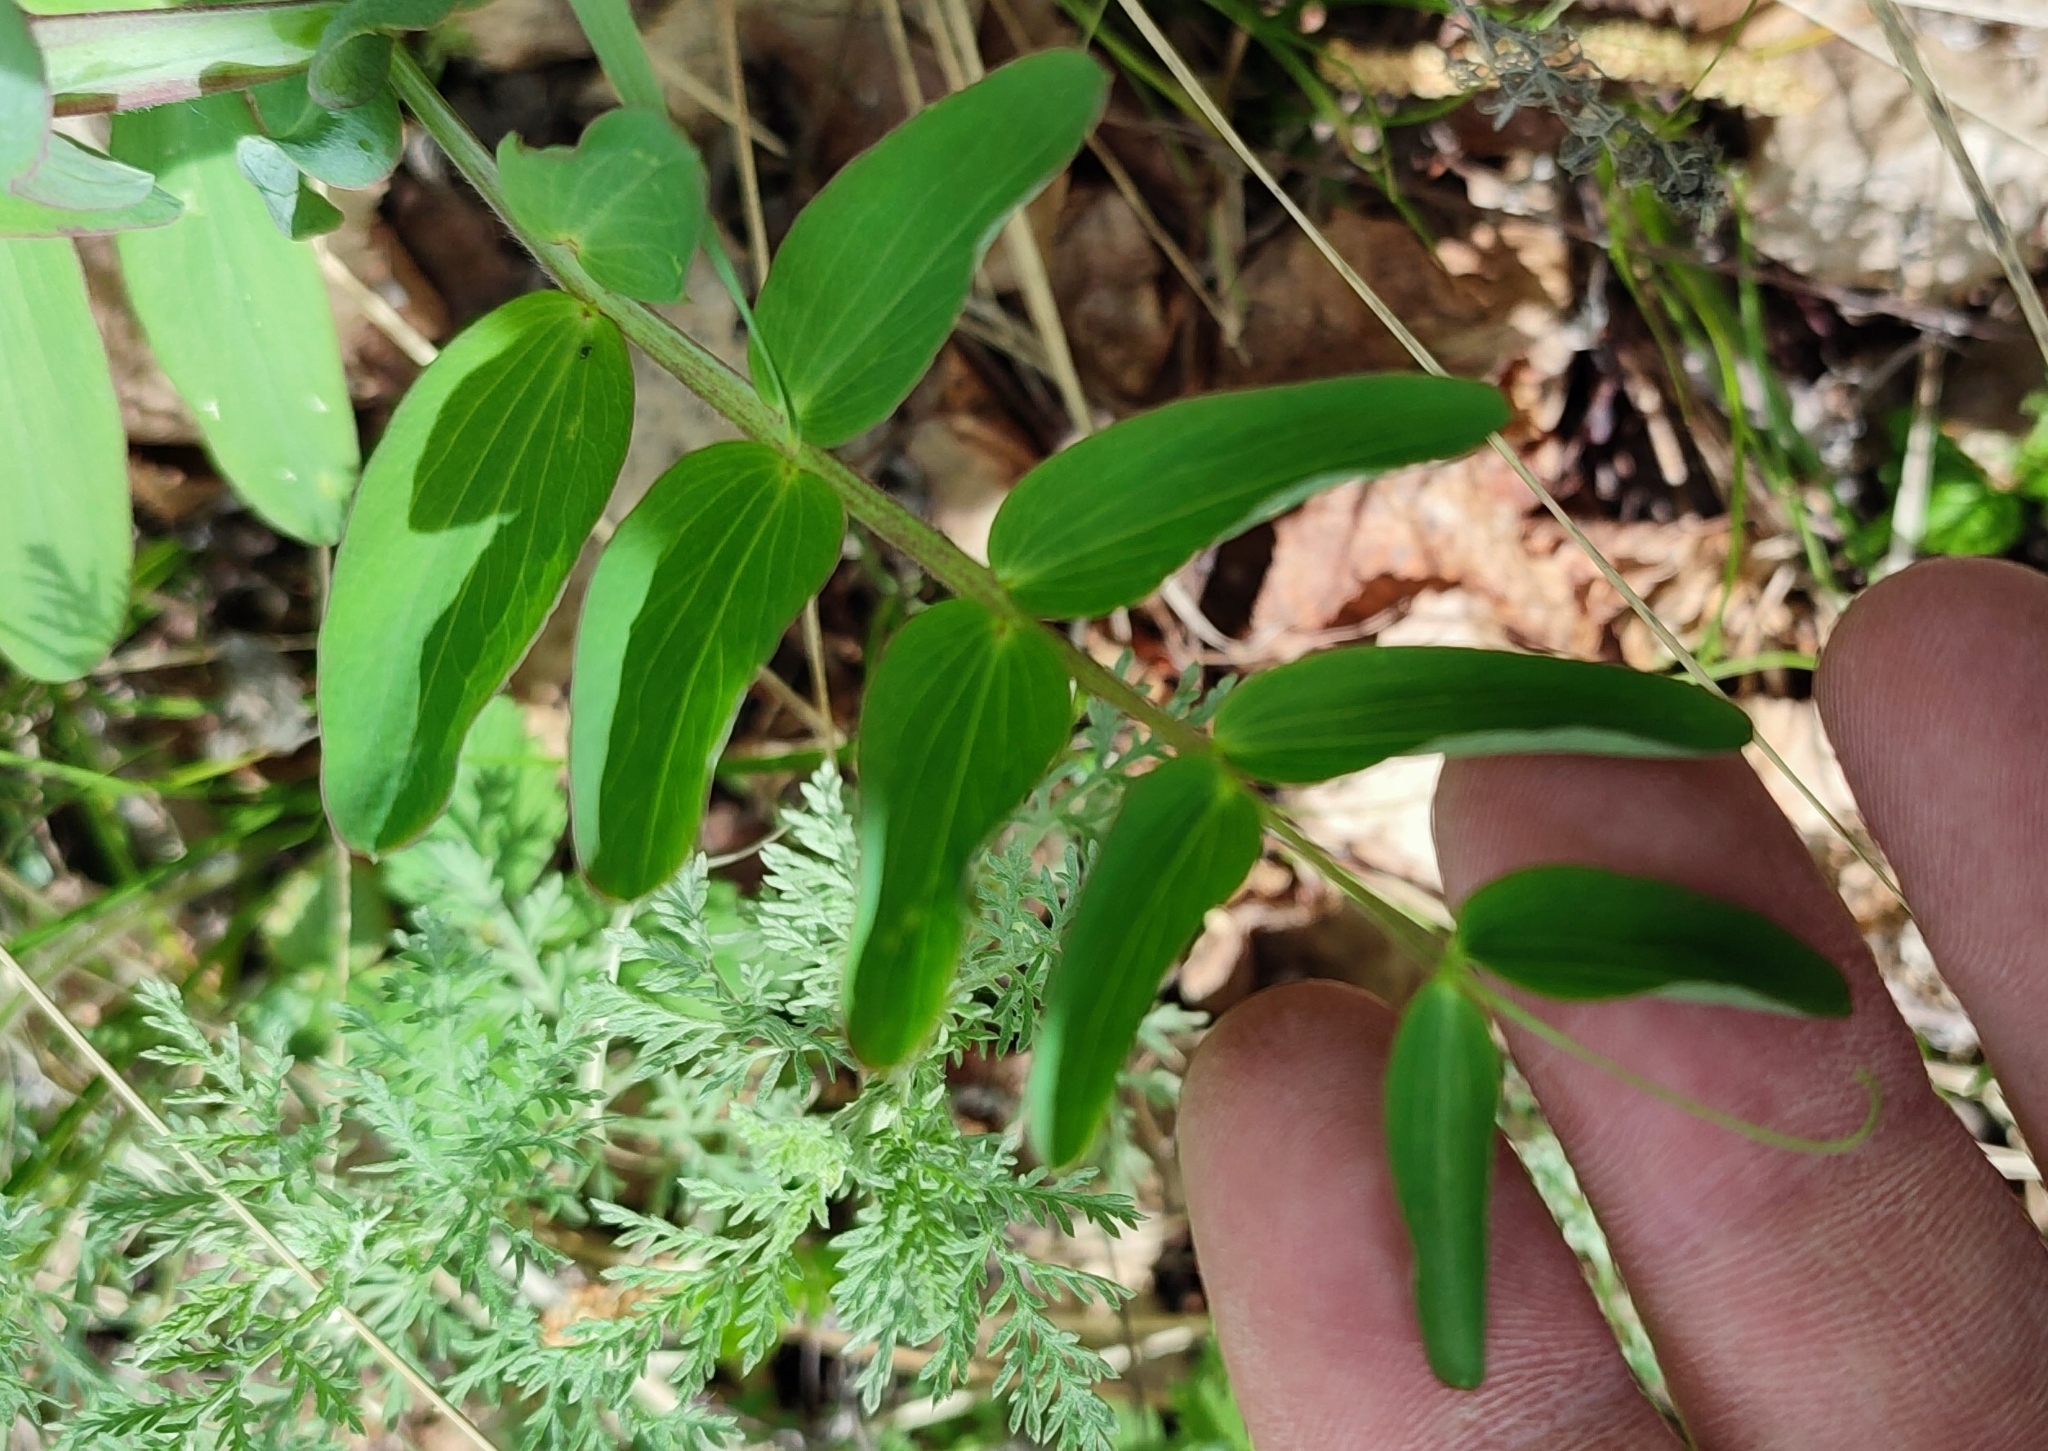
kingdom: Plantae
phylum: Tracheophyta
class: Magnoliopsida
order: Fabales
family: Fabaceae
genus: Lathyrus
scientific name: Lathyrus pisiformis
